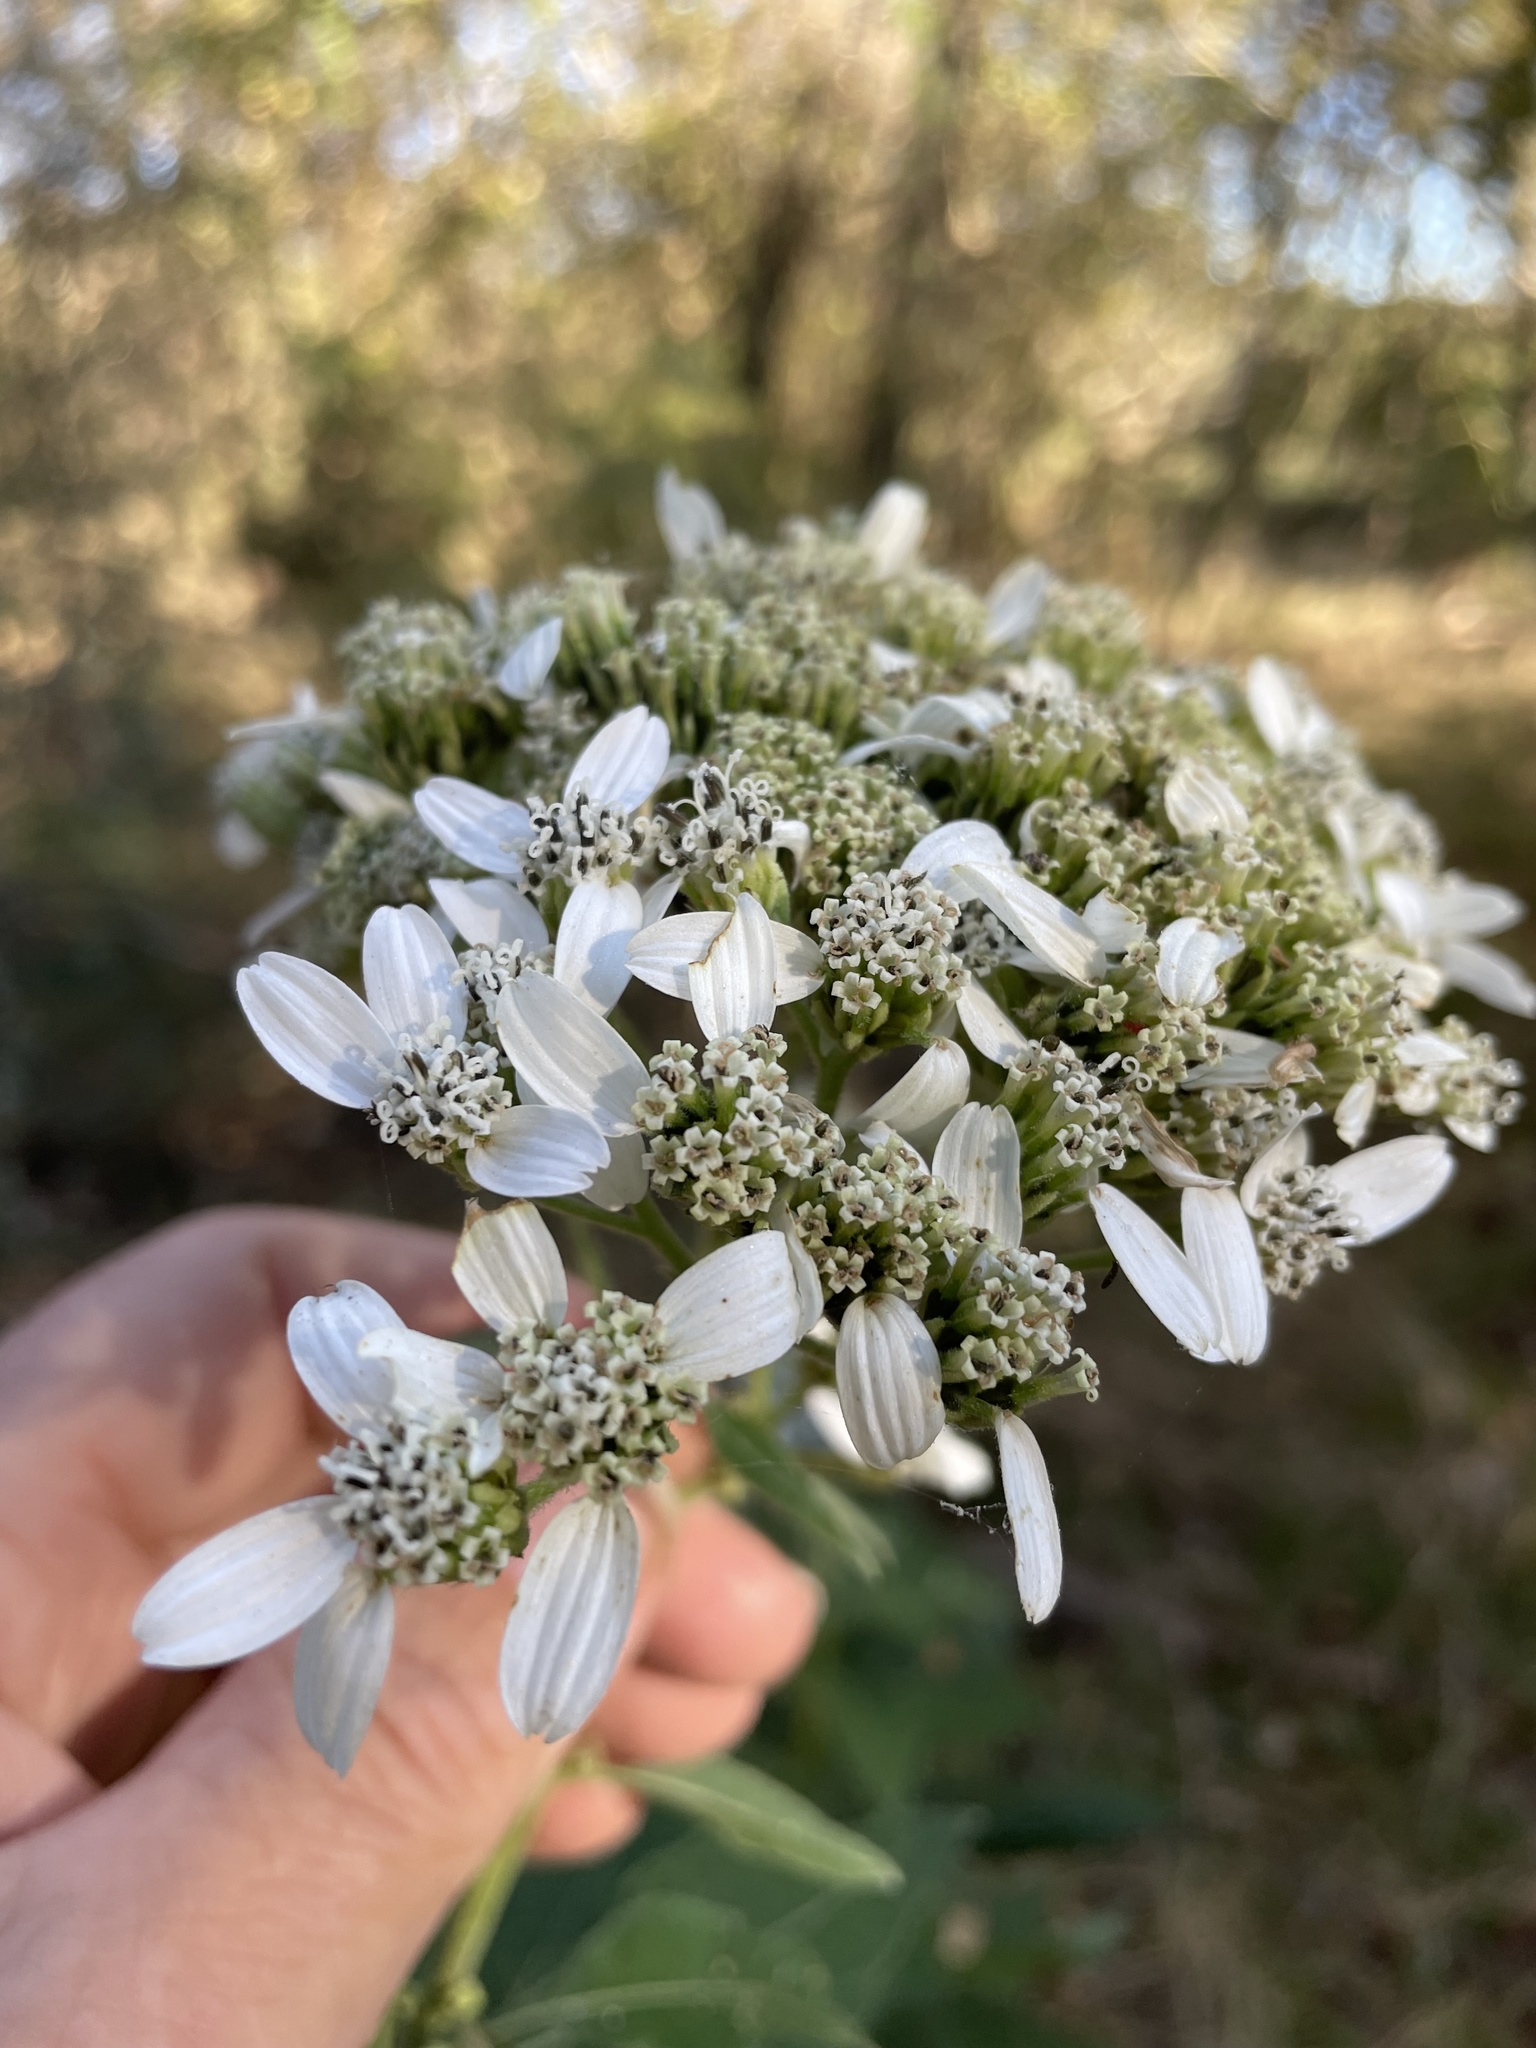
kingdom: Plantae
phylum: Tracheophyta
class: Magnoliopsida
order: Asterales
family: Asteraceae
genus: Verbesina
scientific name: Verbesina virginica
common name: Frostweed
